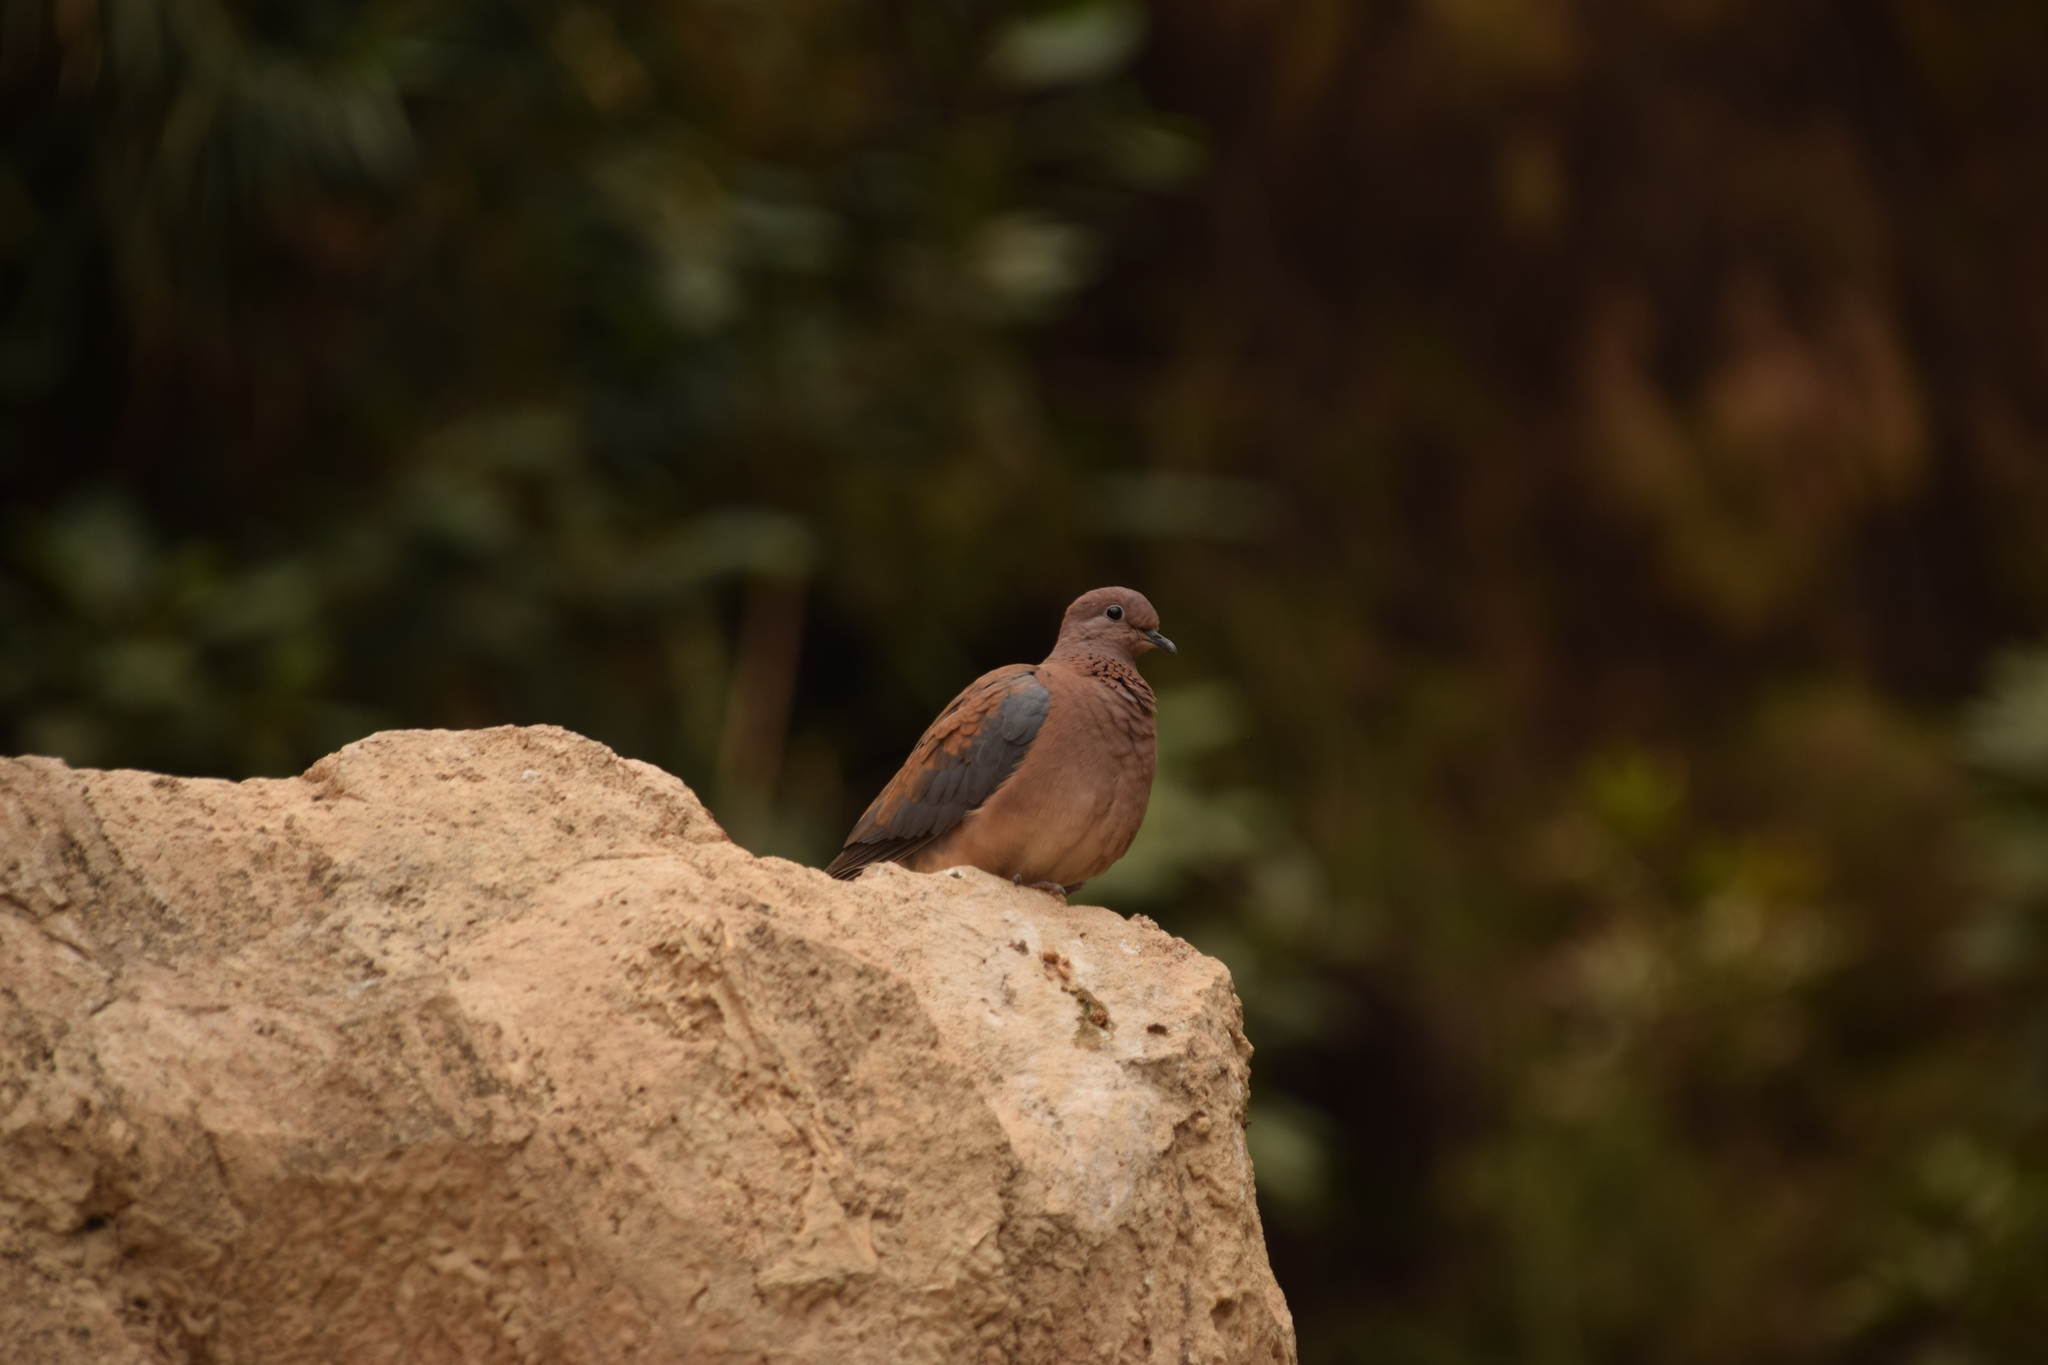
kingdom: Animalia
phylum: Chordata
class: Aves
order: Columbiformes
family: Columbidae
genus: Spilopelia
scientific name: Spilopelia senegalensis
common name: Laughing dove
